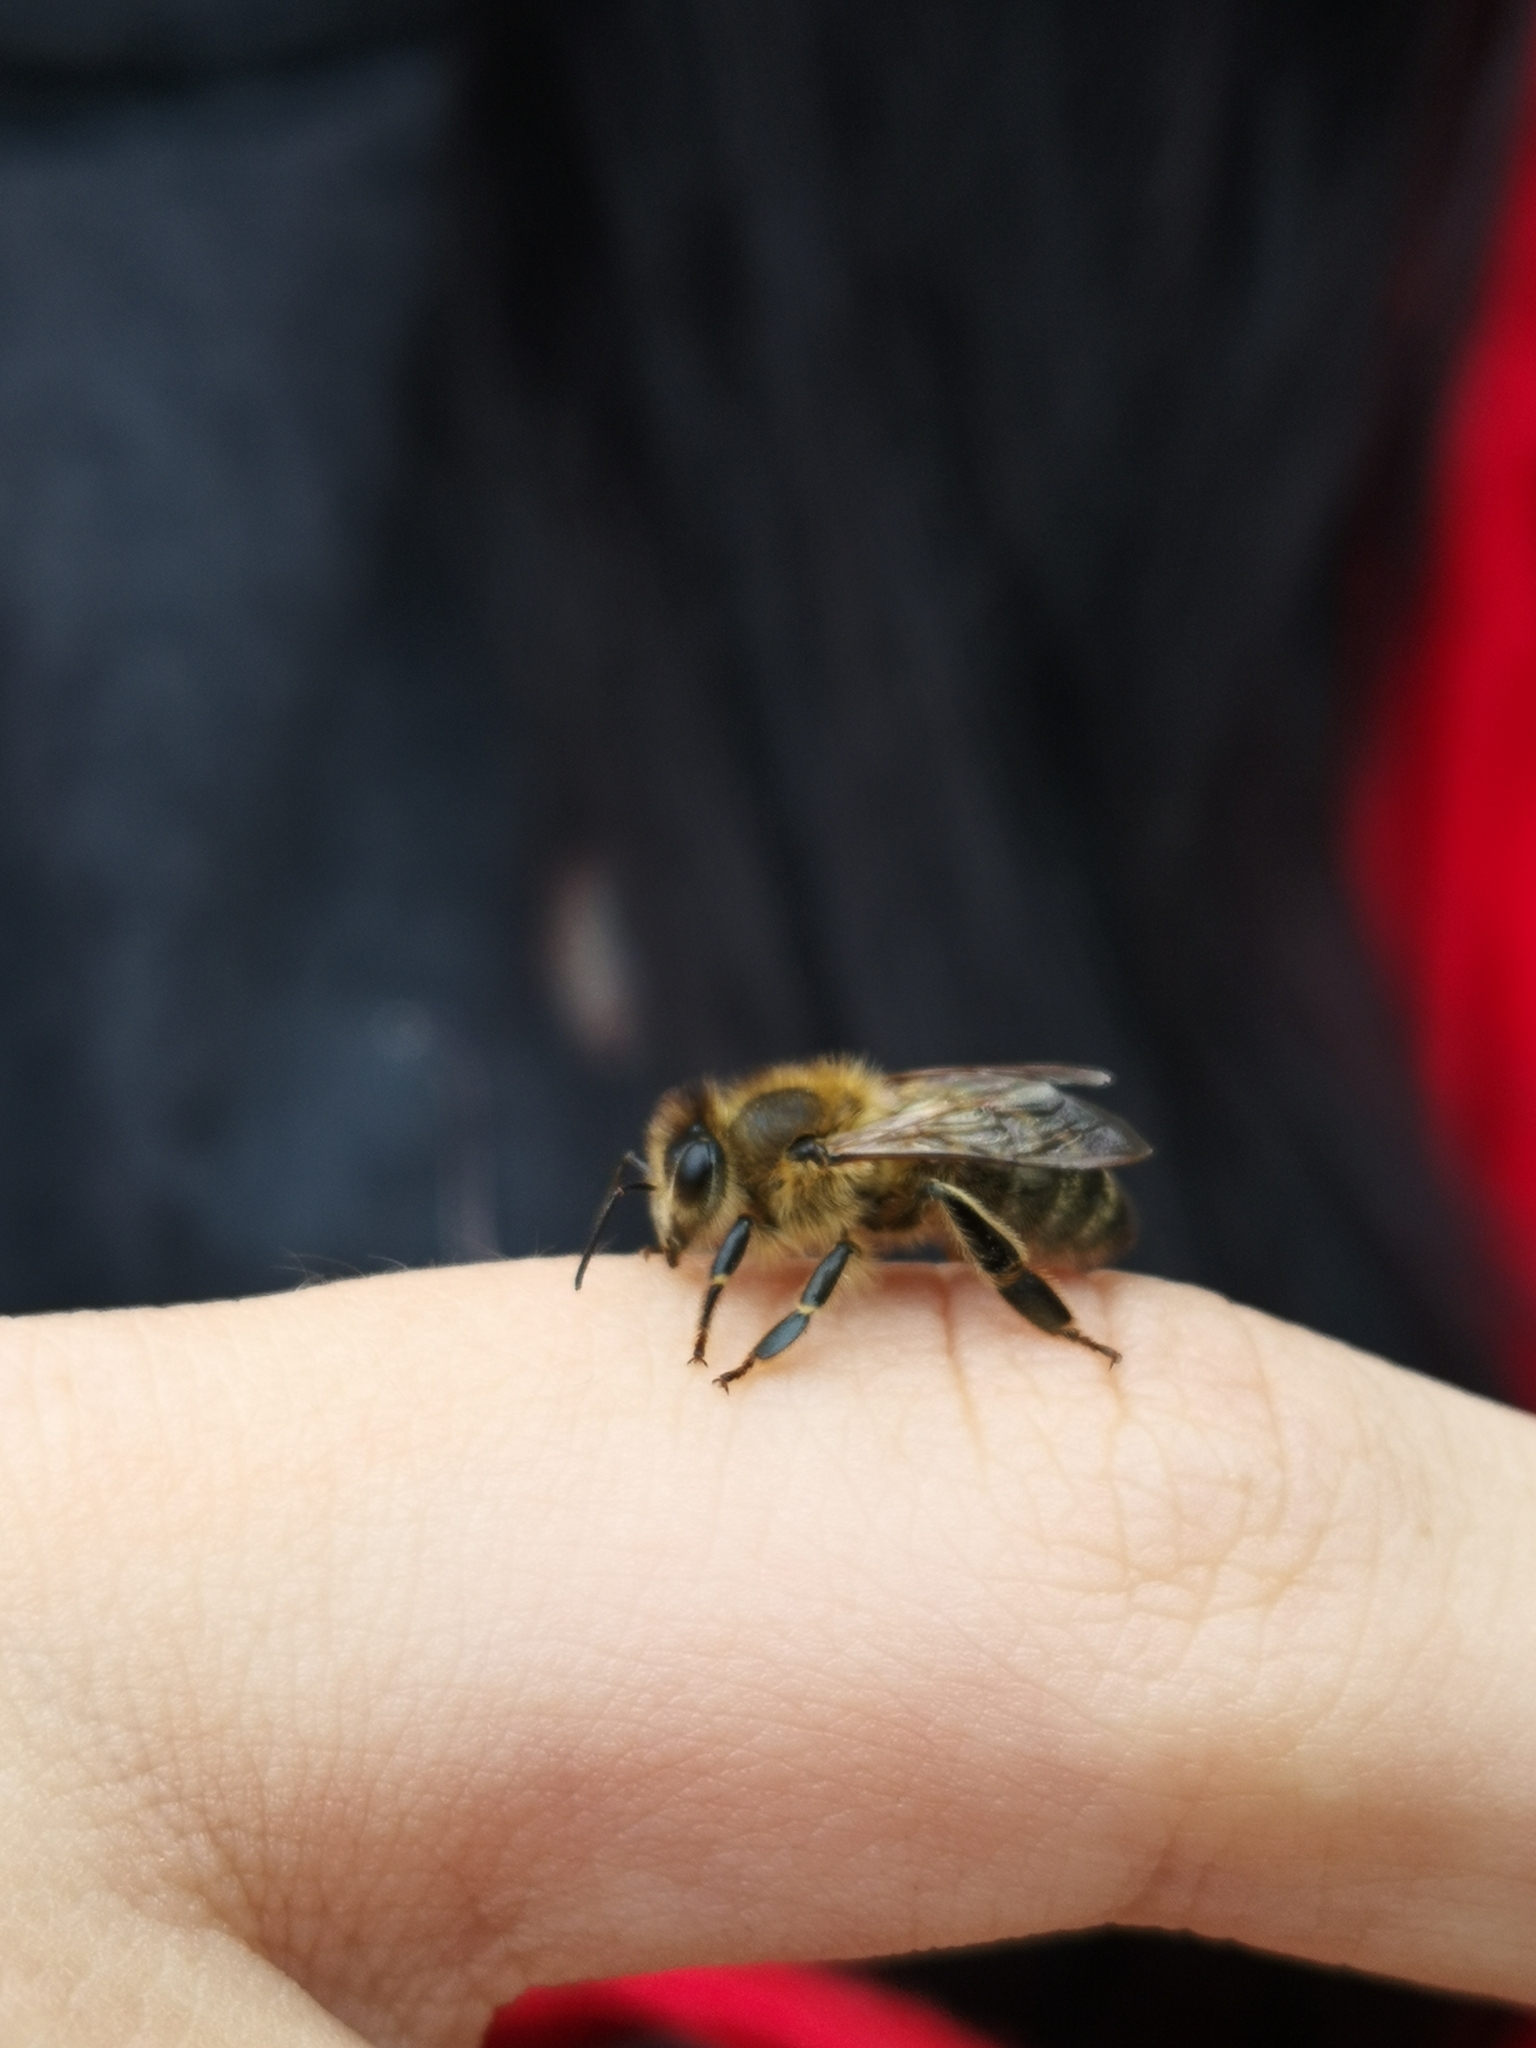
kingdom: Animalia
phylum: Arthropoda
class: Insecta
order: Hymenoptera
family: Apidae
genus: Apis
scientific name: Apis mellifera
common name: Honey bee
